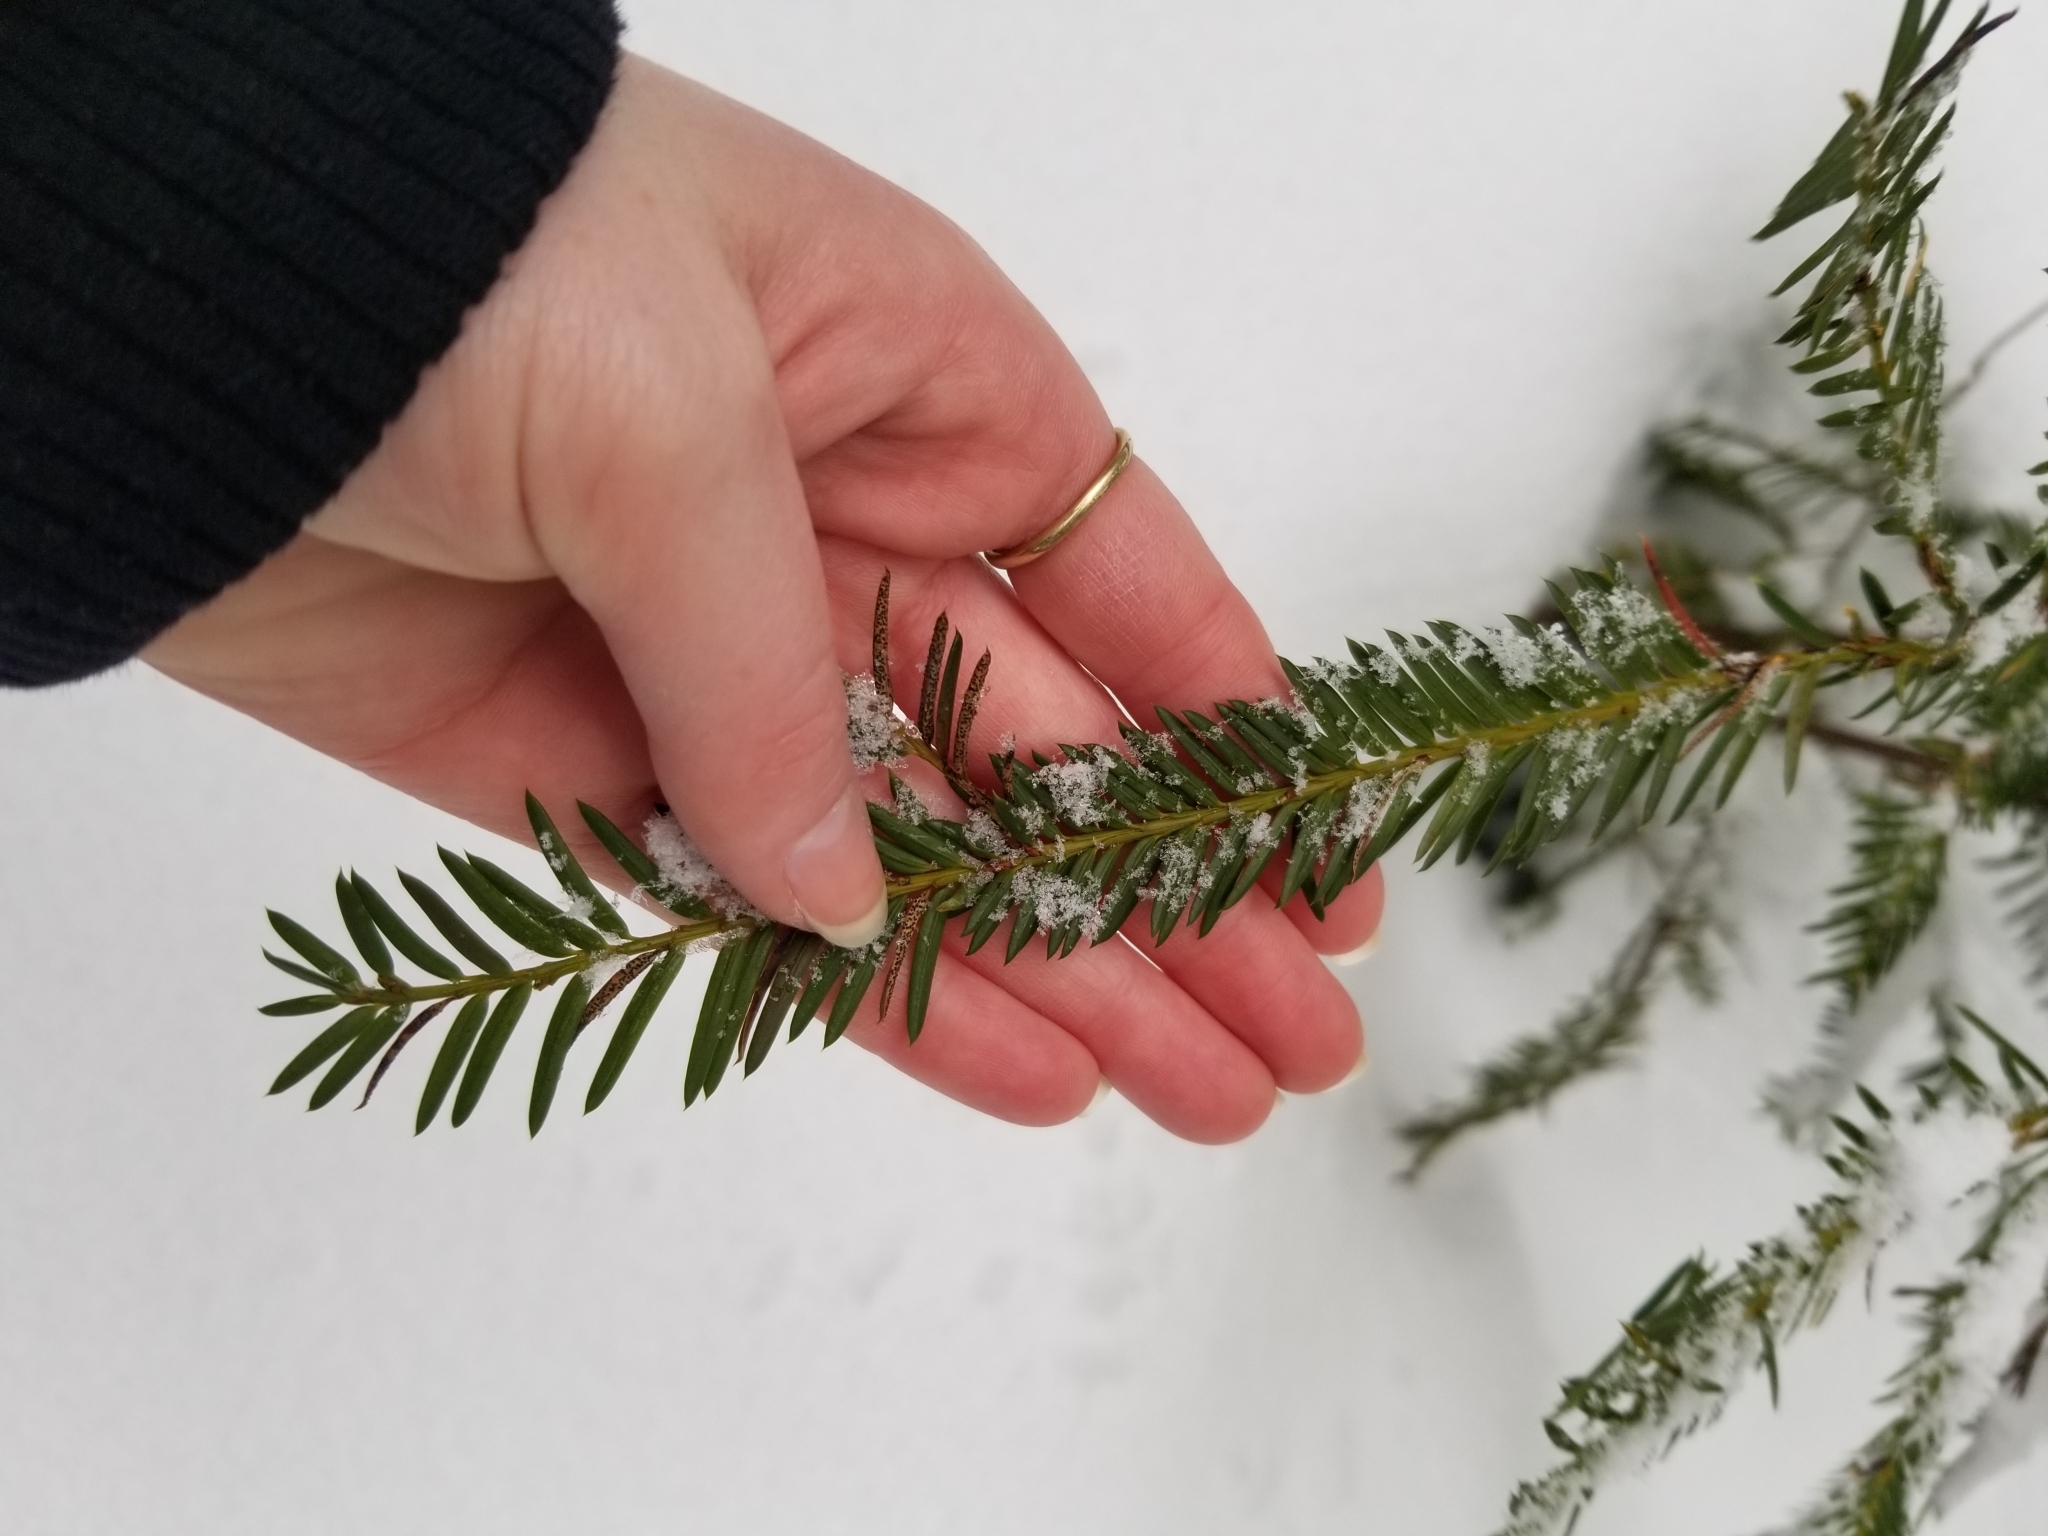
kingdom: Plantae
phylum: Tracheophyta
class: Pinopsida
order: Pinales
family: Taxaceae
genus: Taxus
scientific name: Taxus brevifolia
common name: Pacific yew
